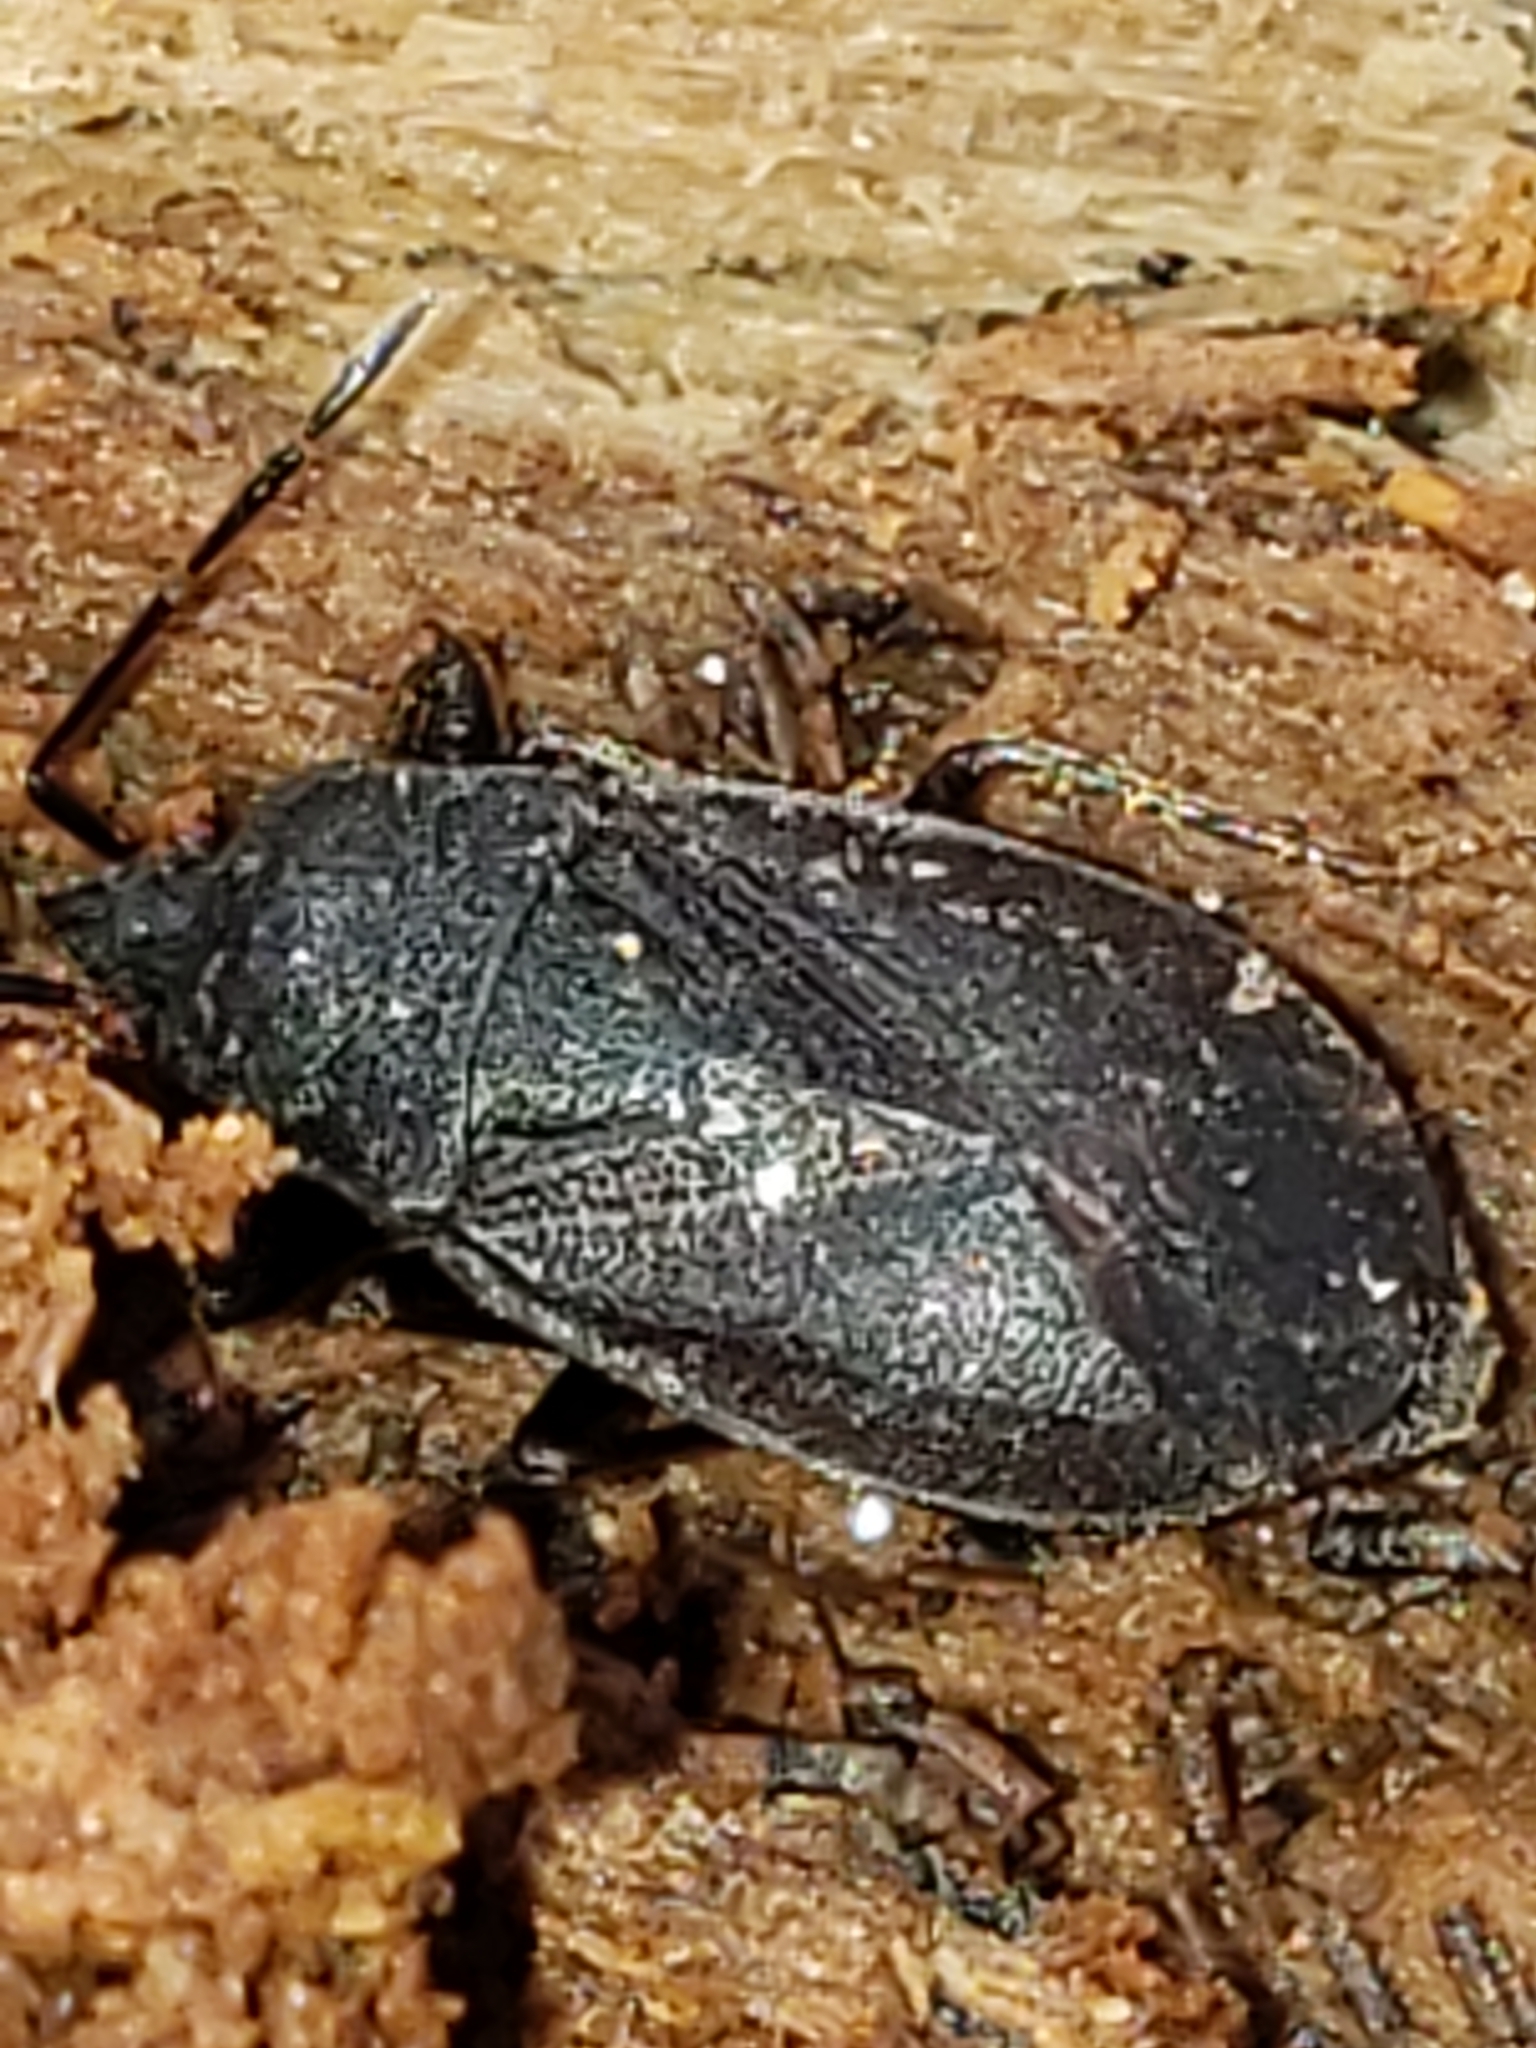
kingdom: Animalia
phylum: Arthropoda
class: Insecta
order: Hemiptera
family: Rhyparochromidae
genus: Drymus
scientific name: Drymus crassus
